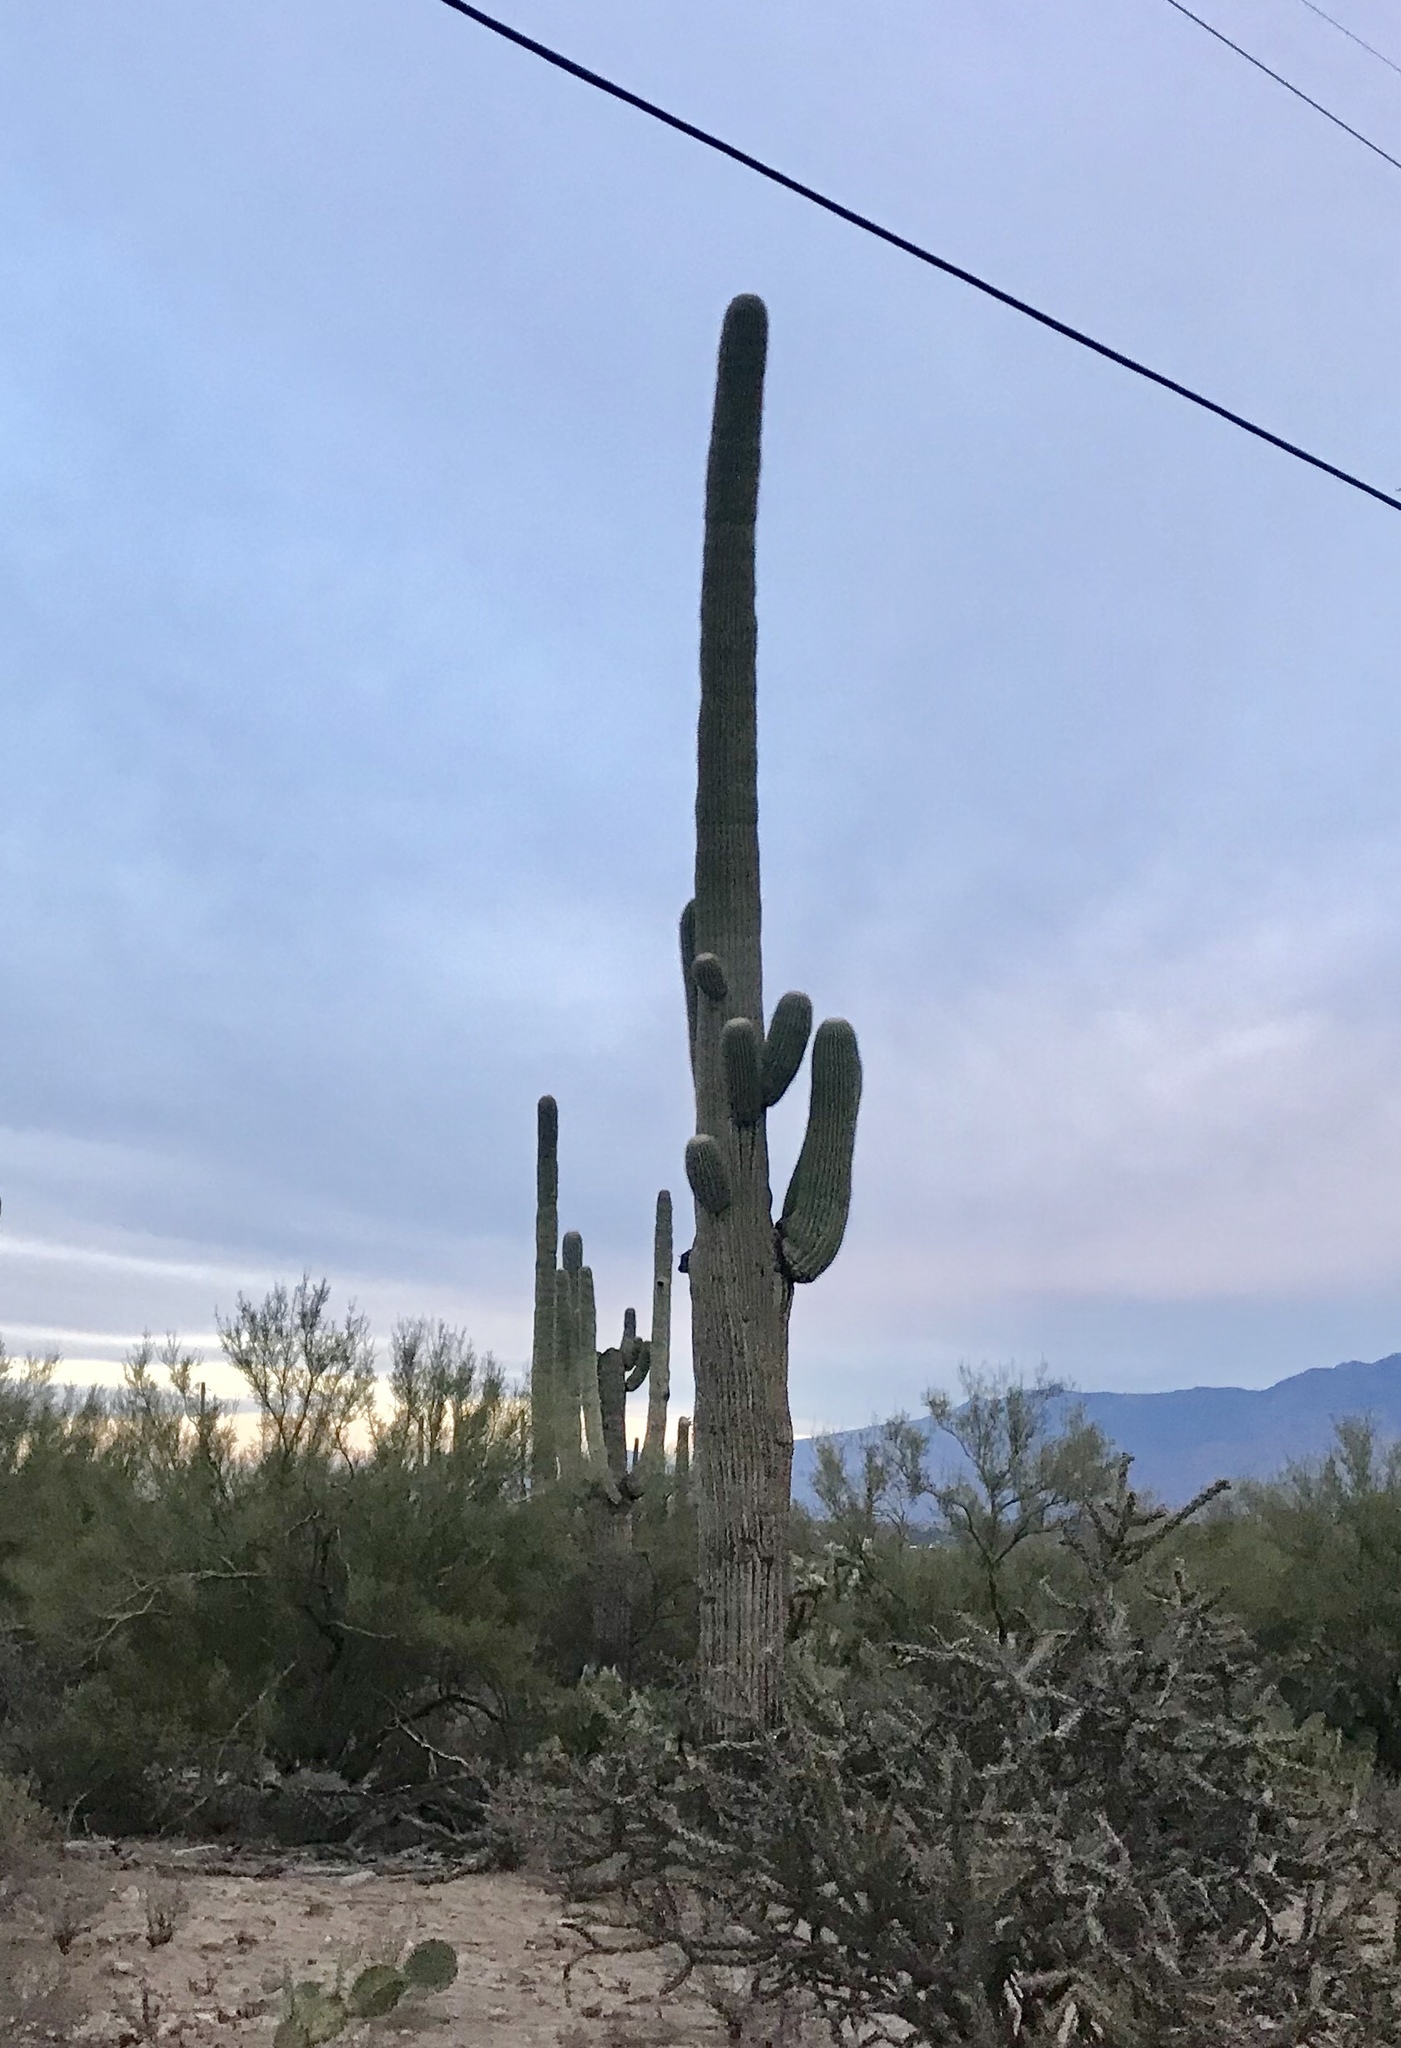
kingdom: Plantae
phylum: Tracheophyta
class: Magnoliopsida
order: Caryophyllales
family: Cactaceae
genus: Carnegiea
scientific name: Carnegiea gigantea
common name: Saguaro
